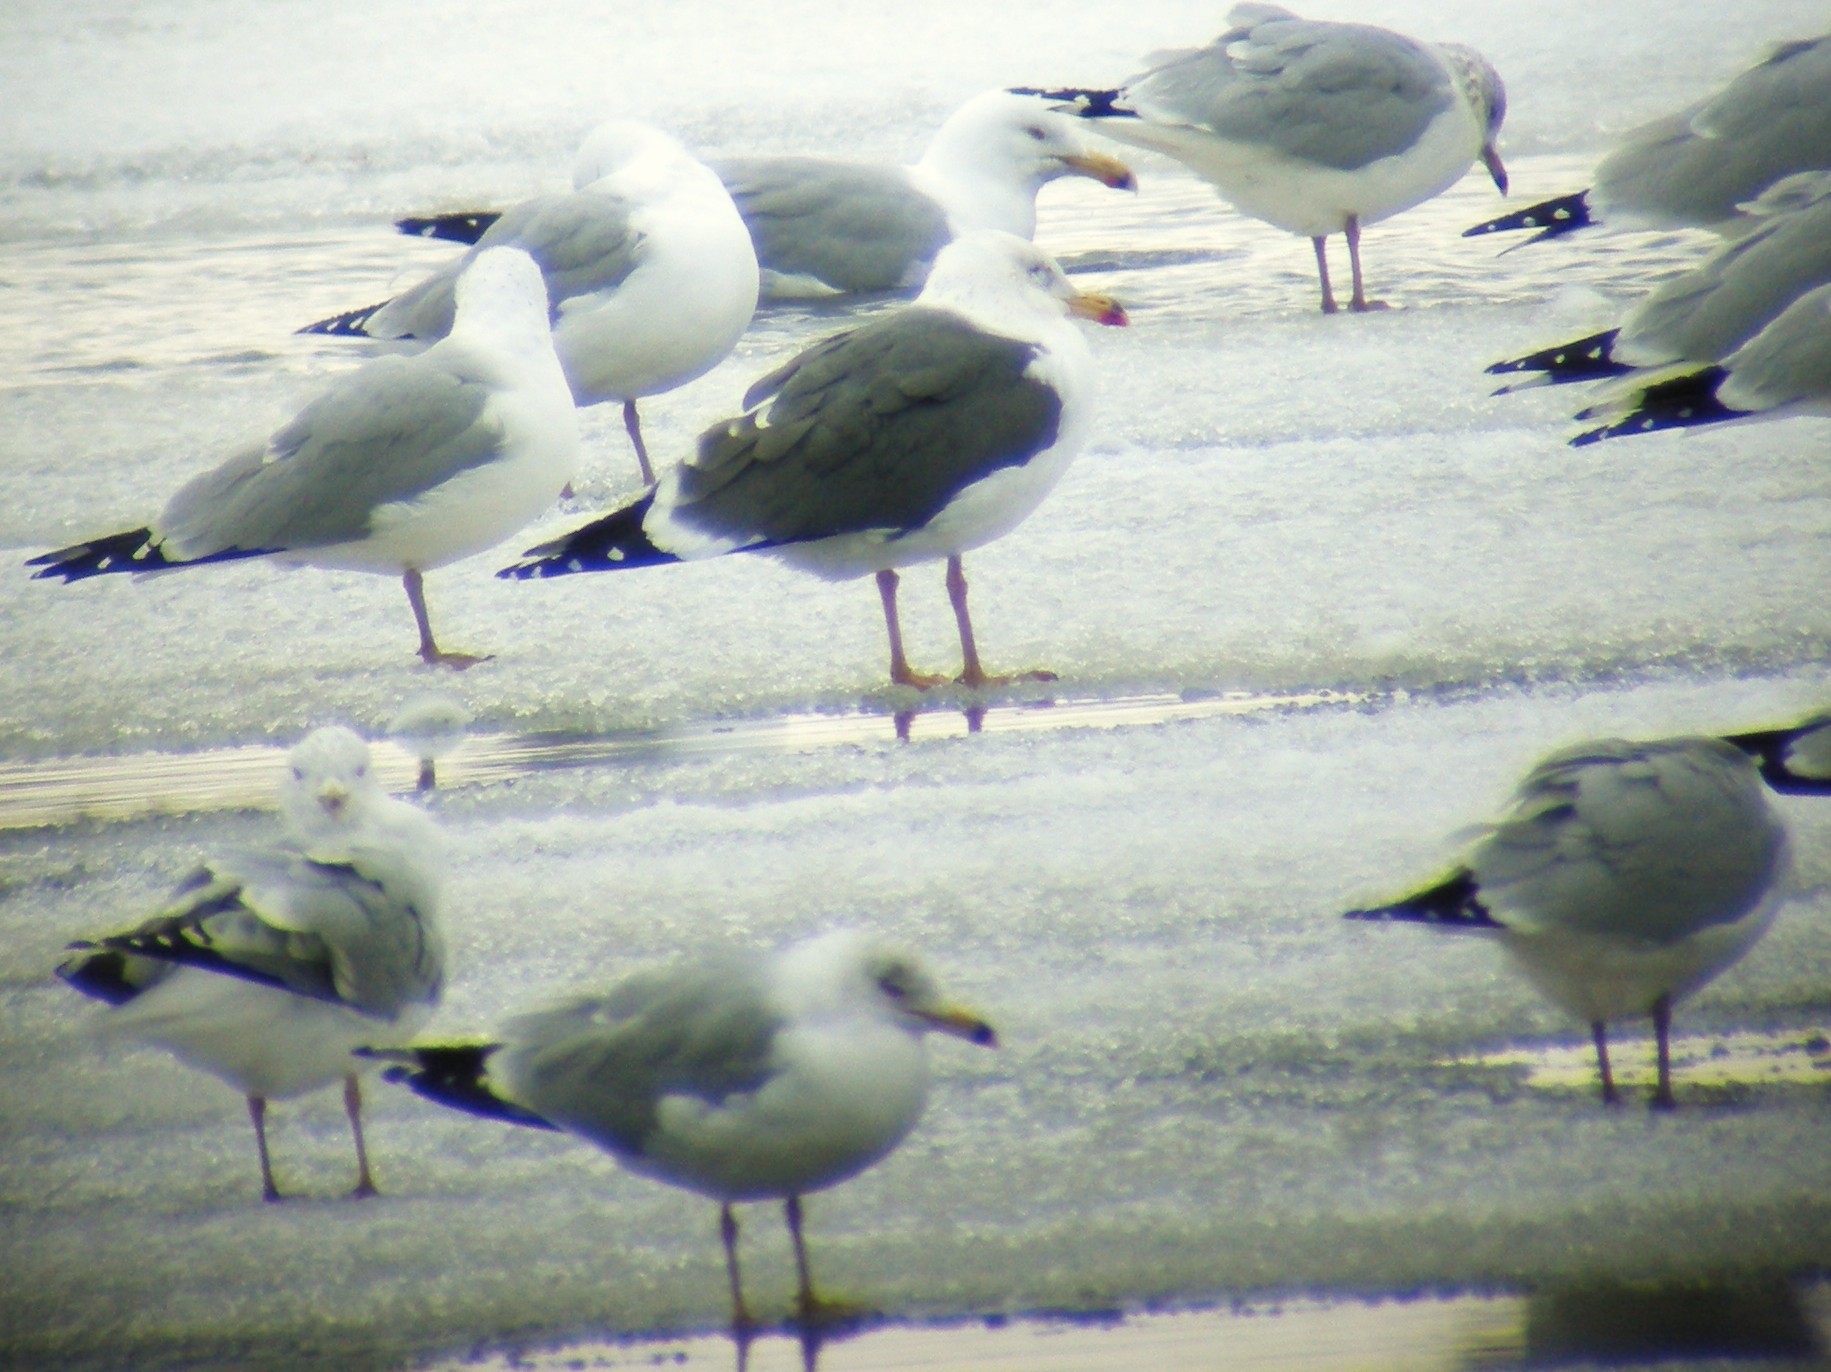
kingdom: Animalia
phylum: Chordata
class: Aves
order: Charadriiformes
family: Laridae
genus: Larus
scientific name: Larus fuscus
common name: Lesser black-backed gull
